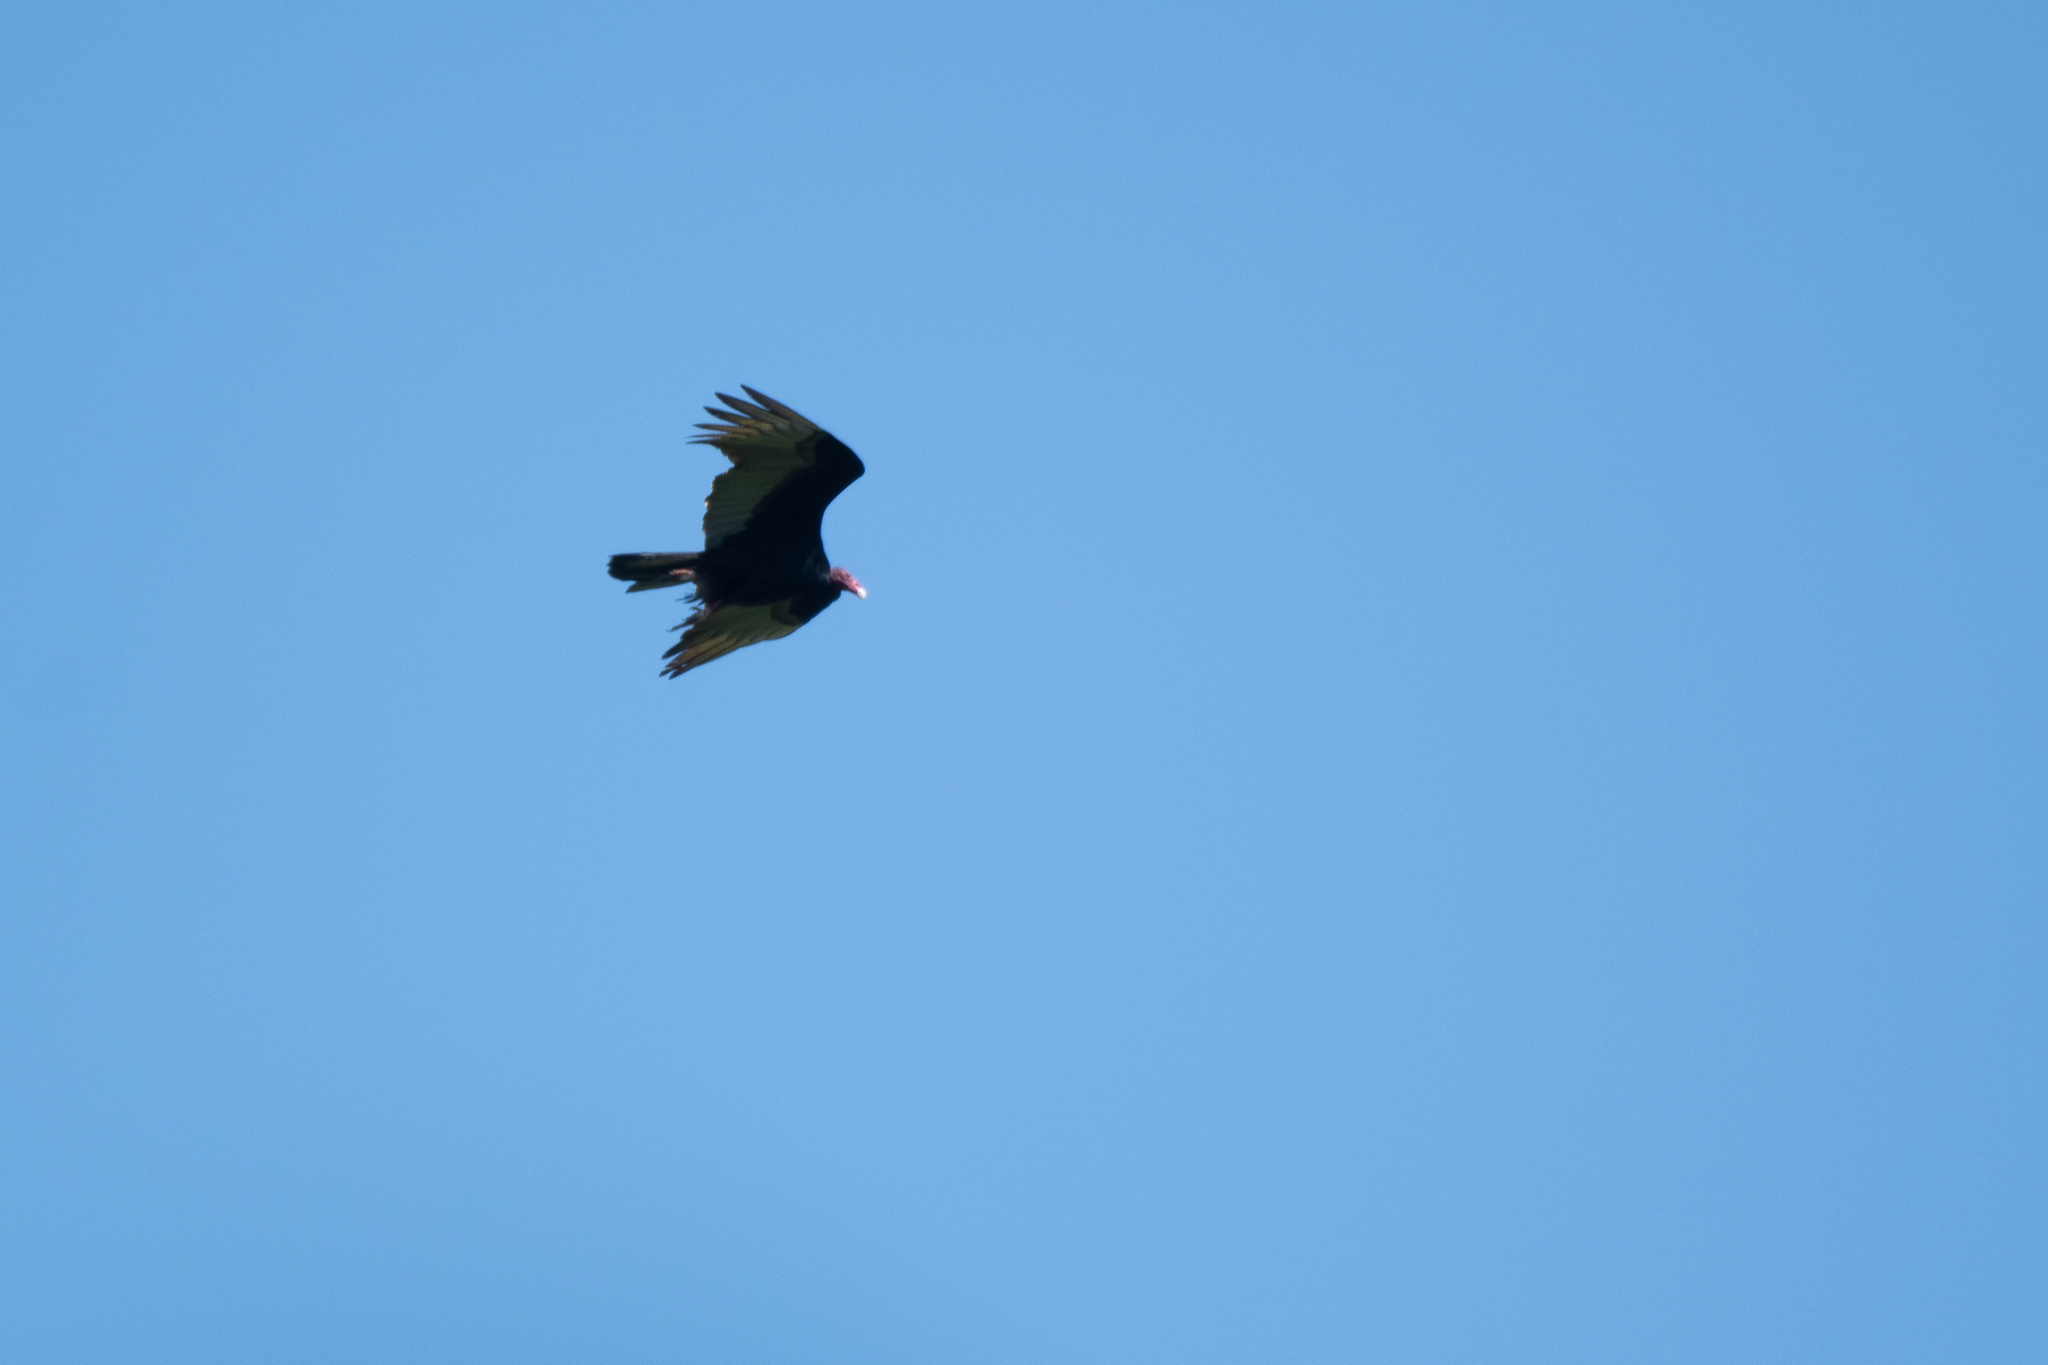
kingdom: Animalia
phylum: Chordata
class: Aves
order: Accipitriformes
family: Cathartidae
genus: Cathartes
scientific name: Cathartes aura
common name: Turkey vulture
